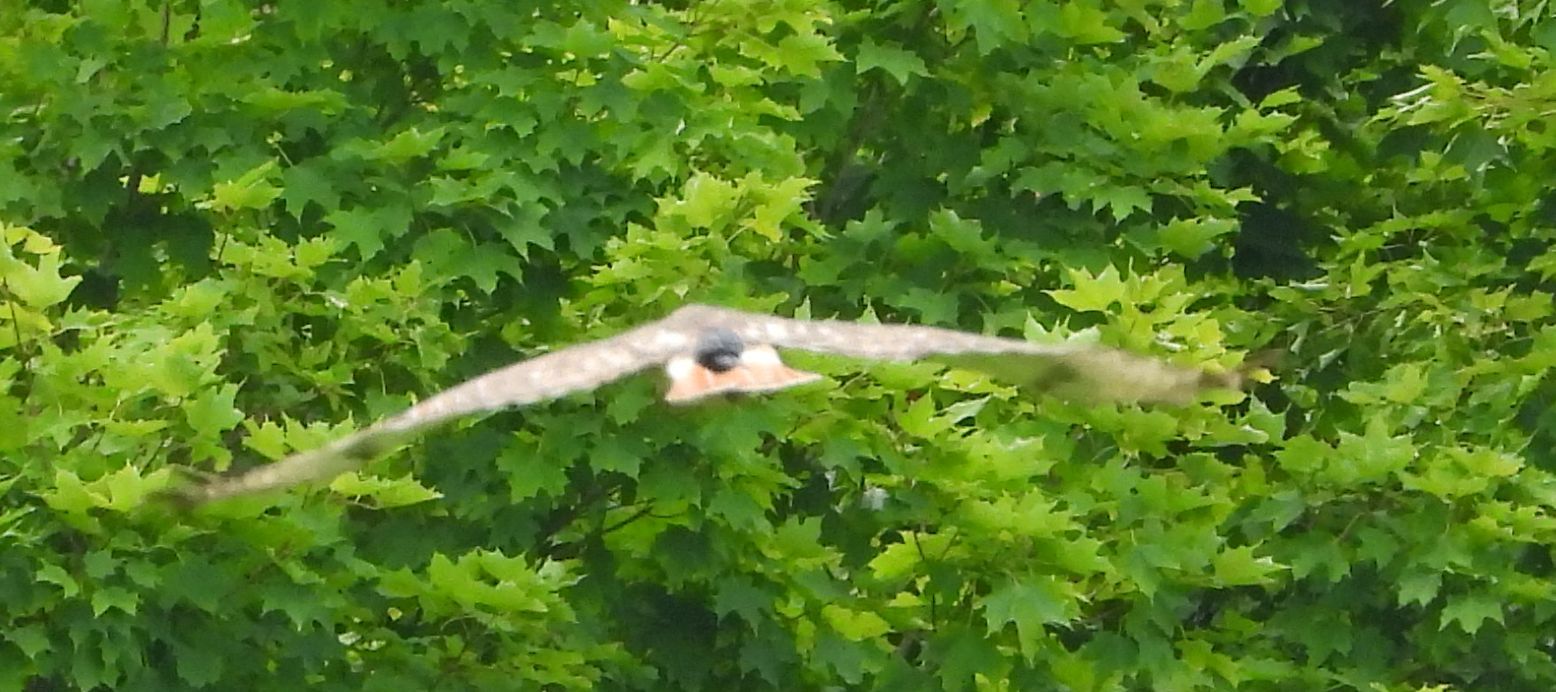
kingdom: Animalia
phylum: Chordata
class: Aves
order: Accipitriformes
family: Accipitridae
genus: Buteo
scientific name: Buteo jamaicensis
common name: Red-tailed hawk
